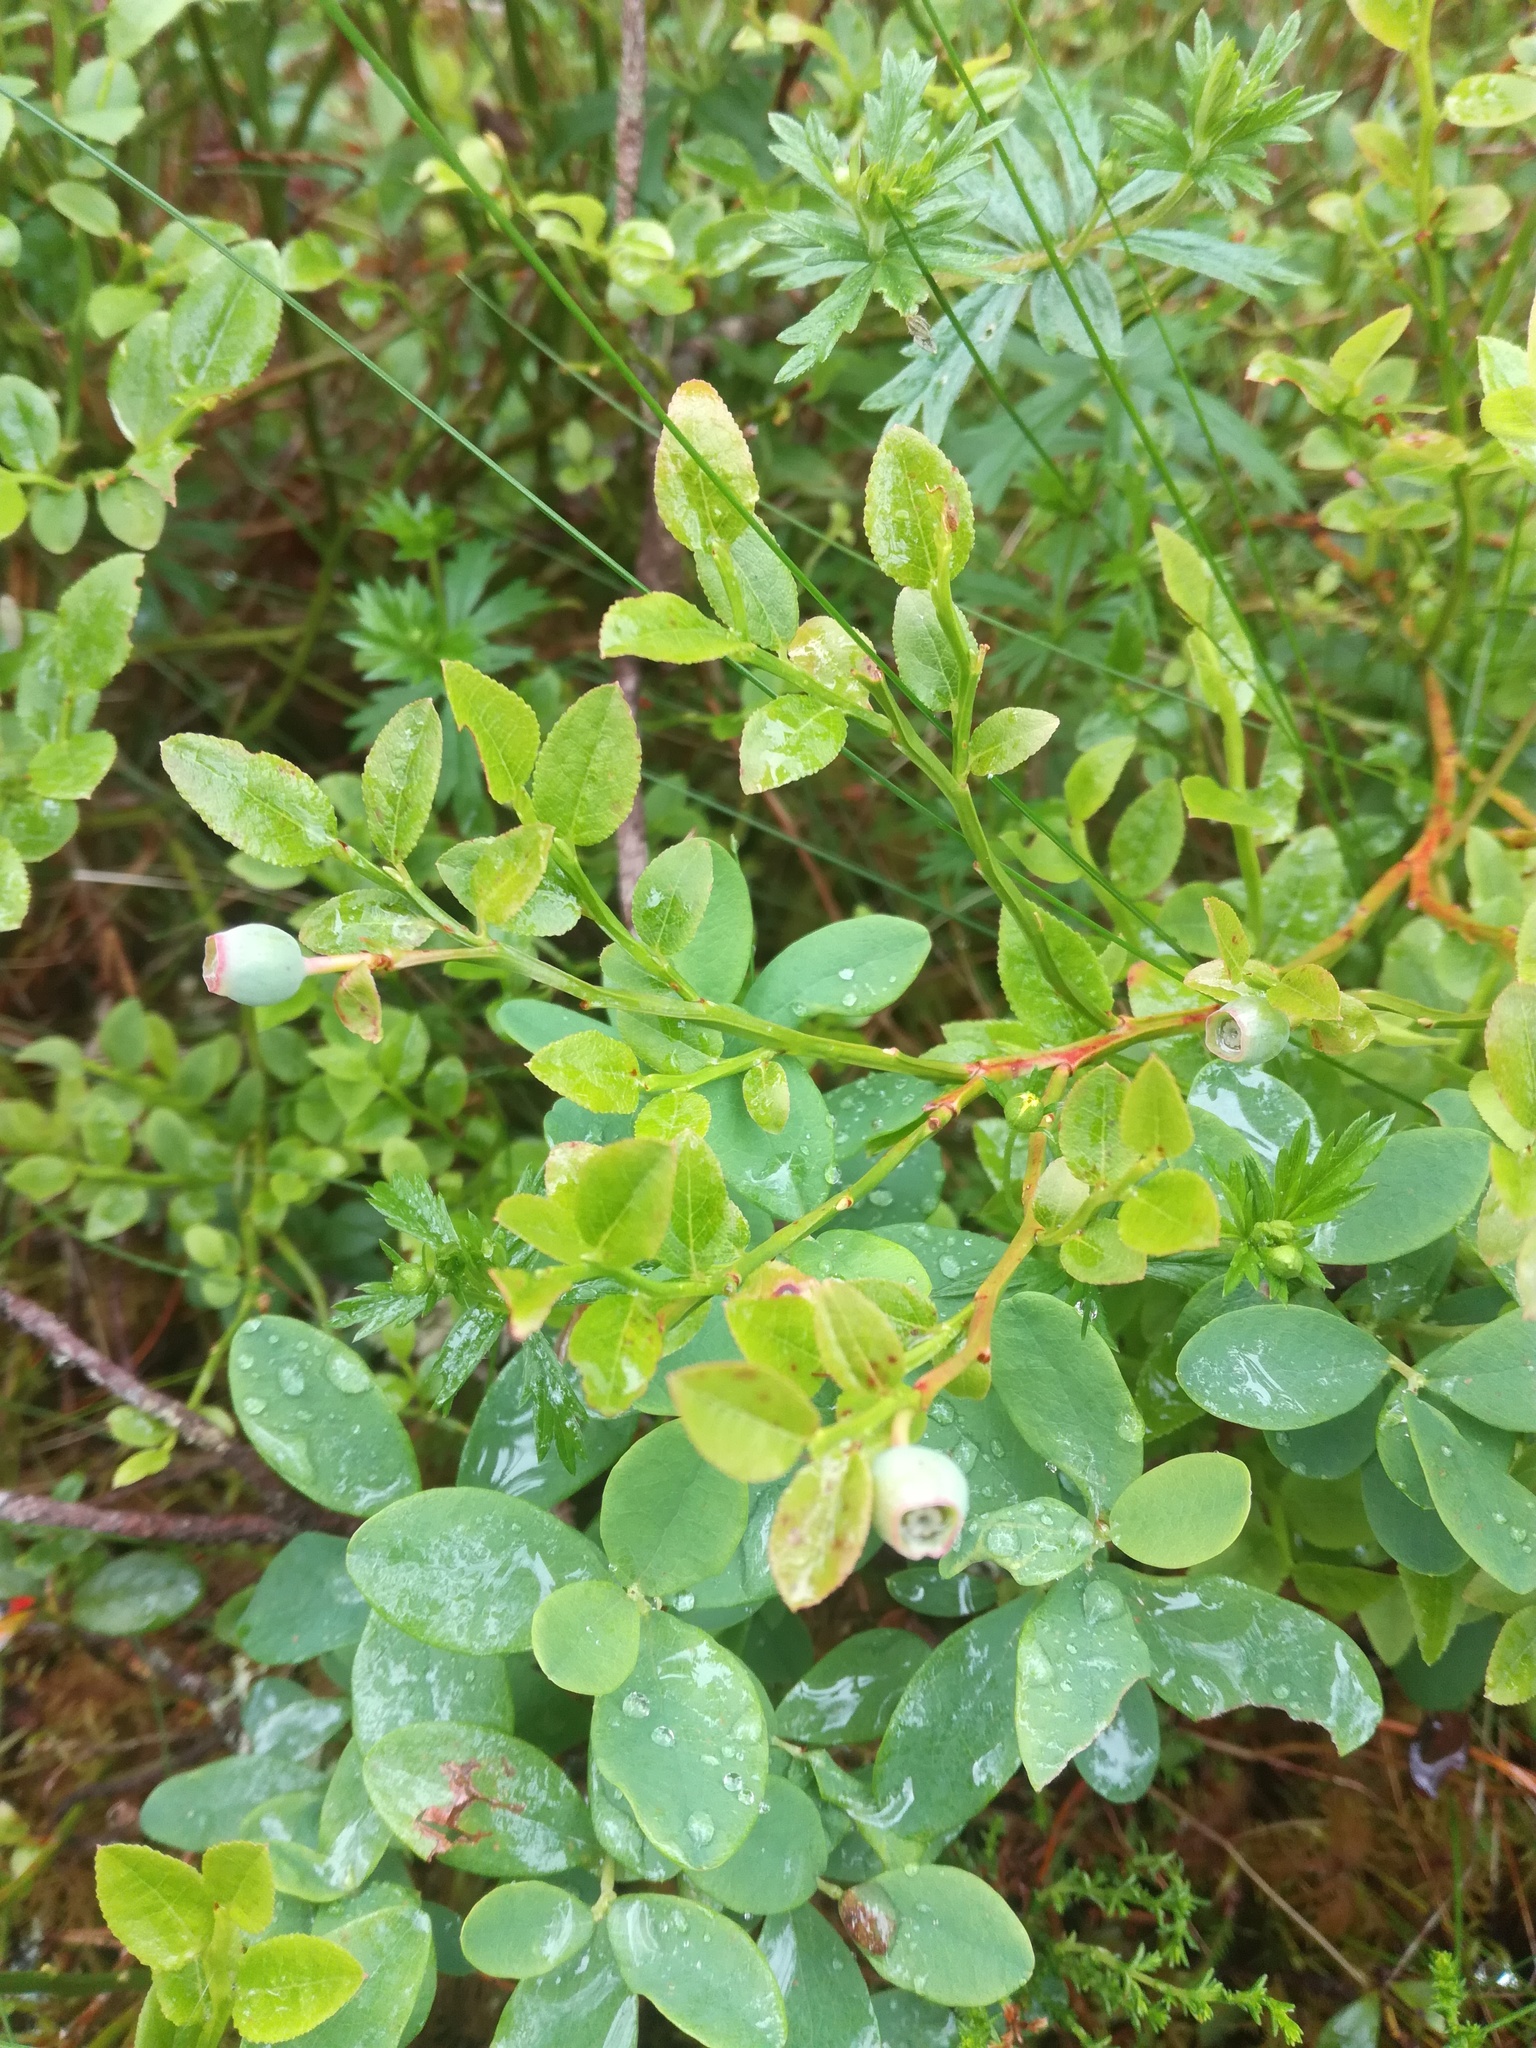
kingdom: Plantae
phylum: Tracheophyta
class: Magnoliopsida
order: Ericales
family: Ericaceae
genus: Vaccinium
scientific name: Vaccinium myrtillus
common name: Bilberry
